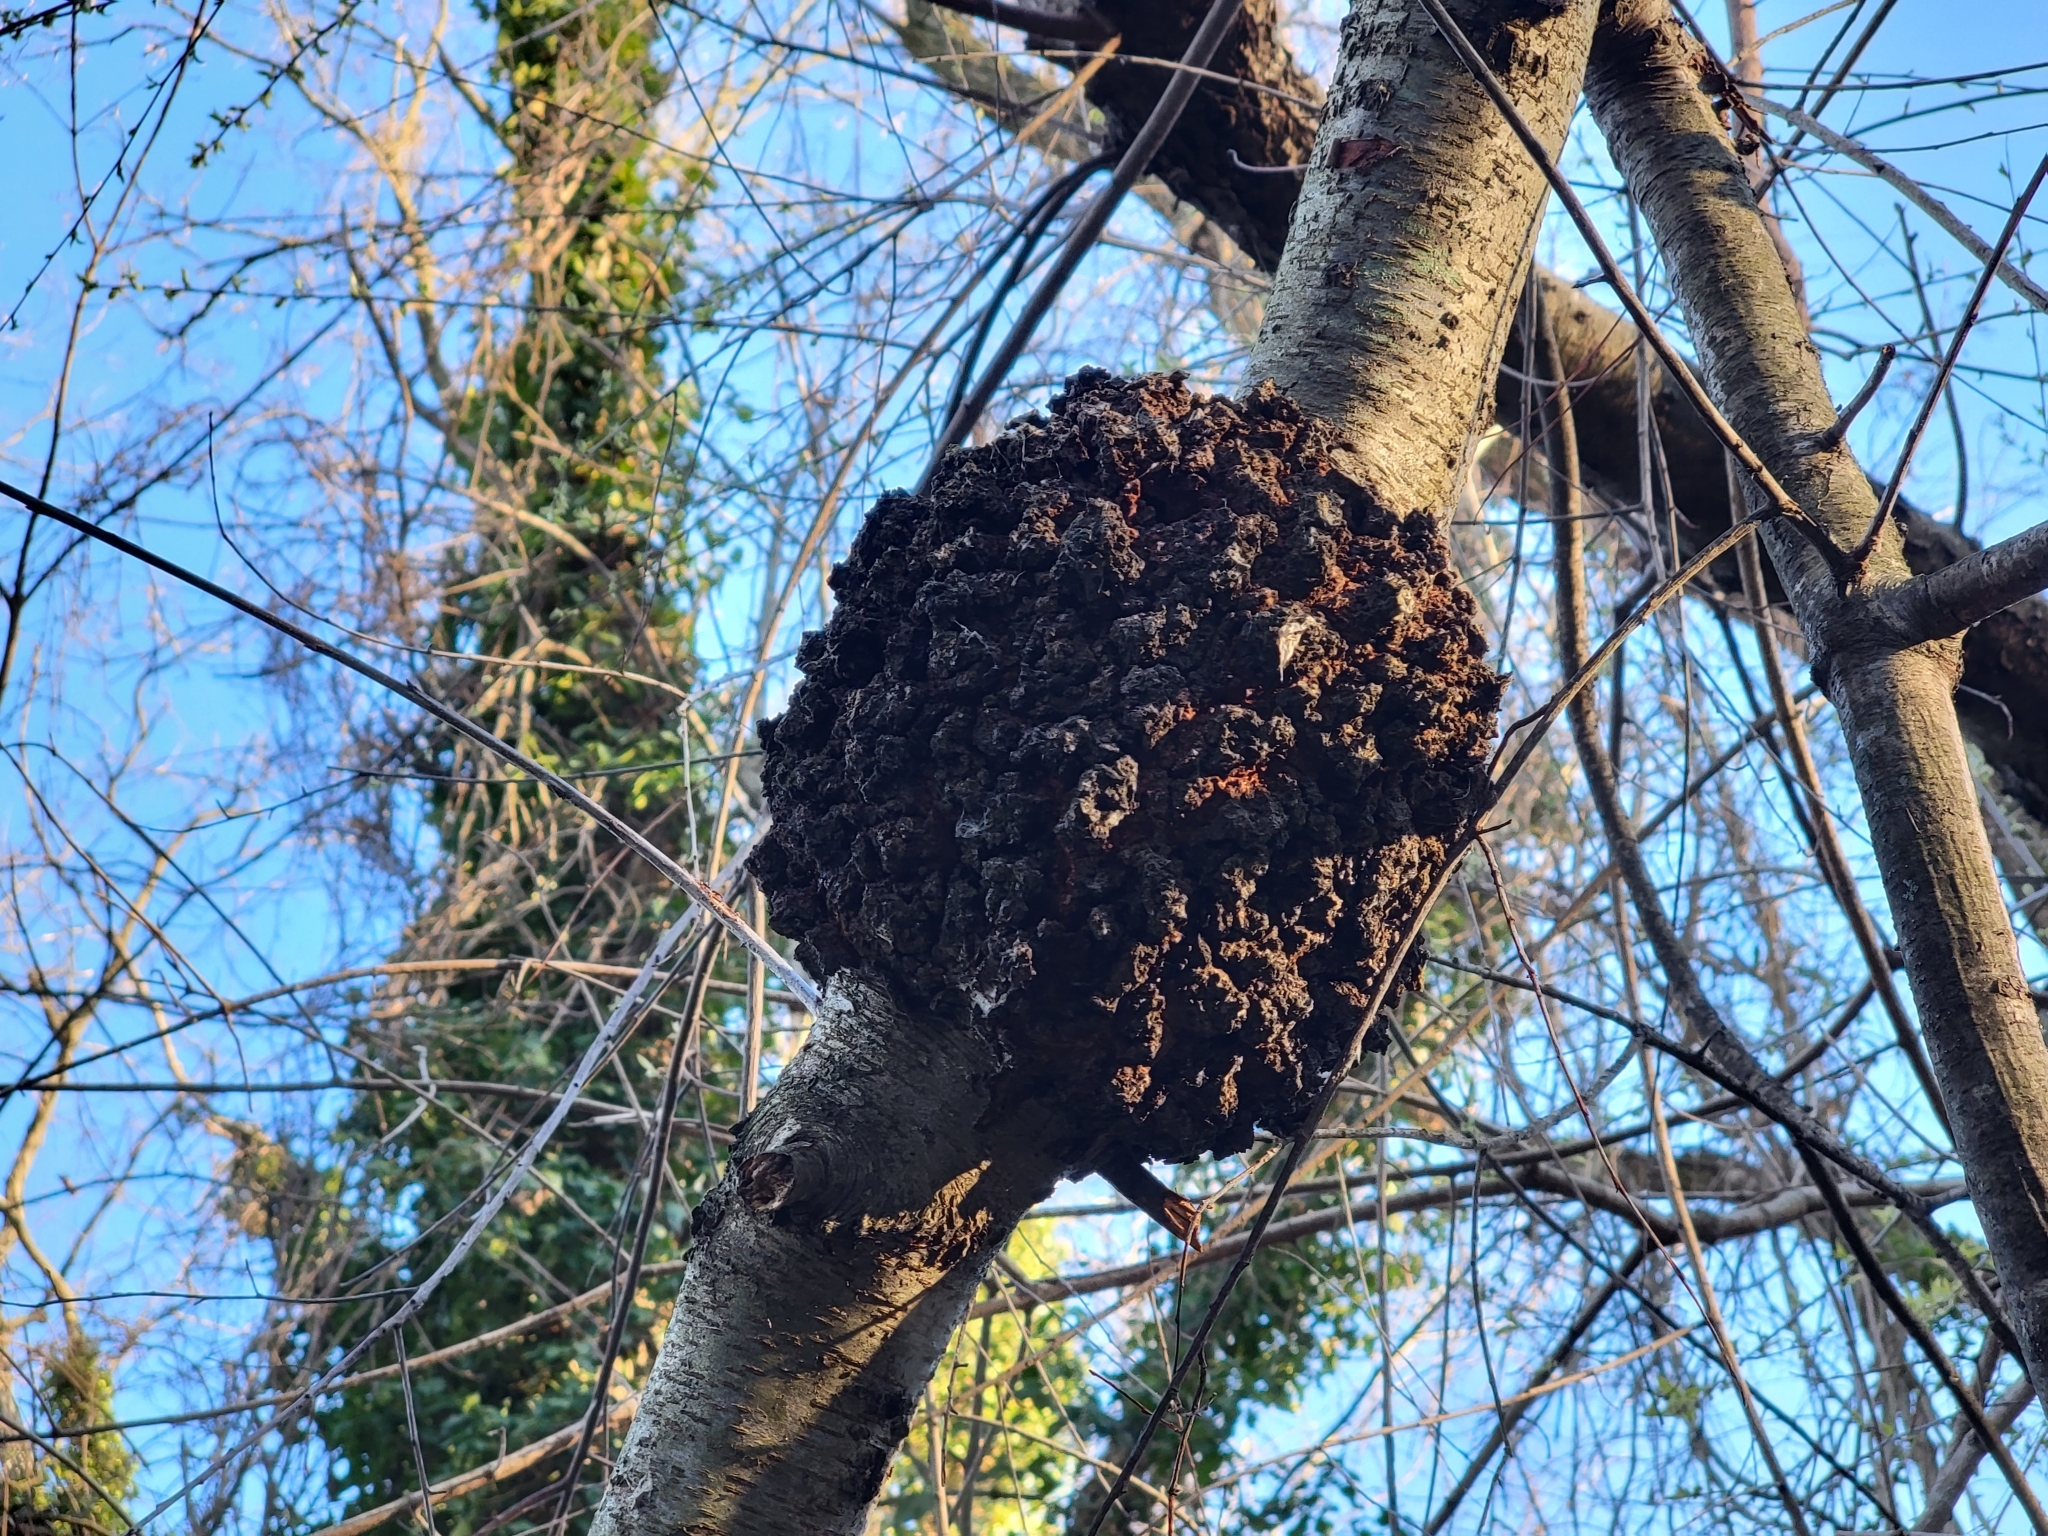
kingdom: Fungi
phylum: Ascomycota
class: Dothideomycetes
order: Venturiales
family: Venturiaceae
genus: Apiosporina
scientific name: Apiosporina morbosa
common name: Black knot
